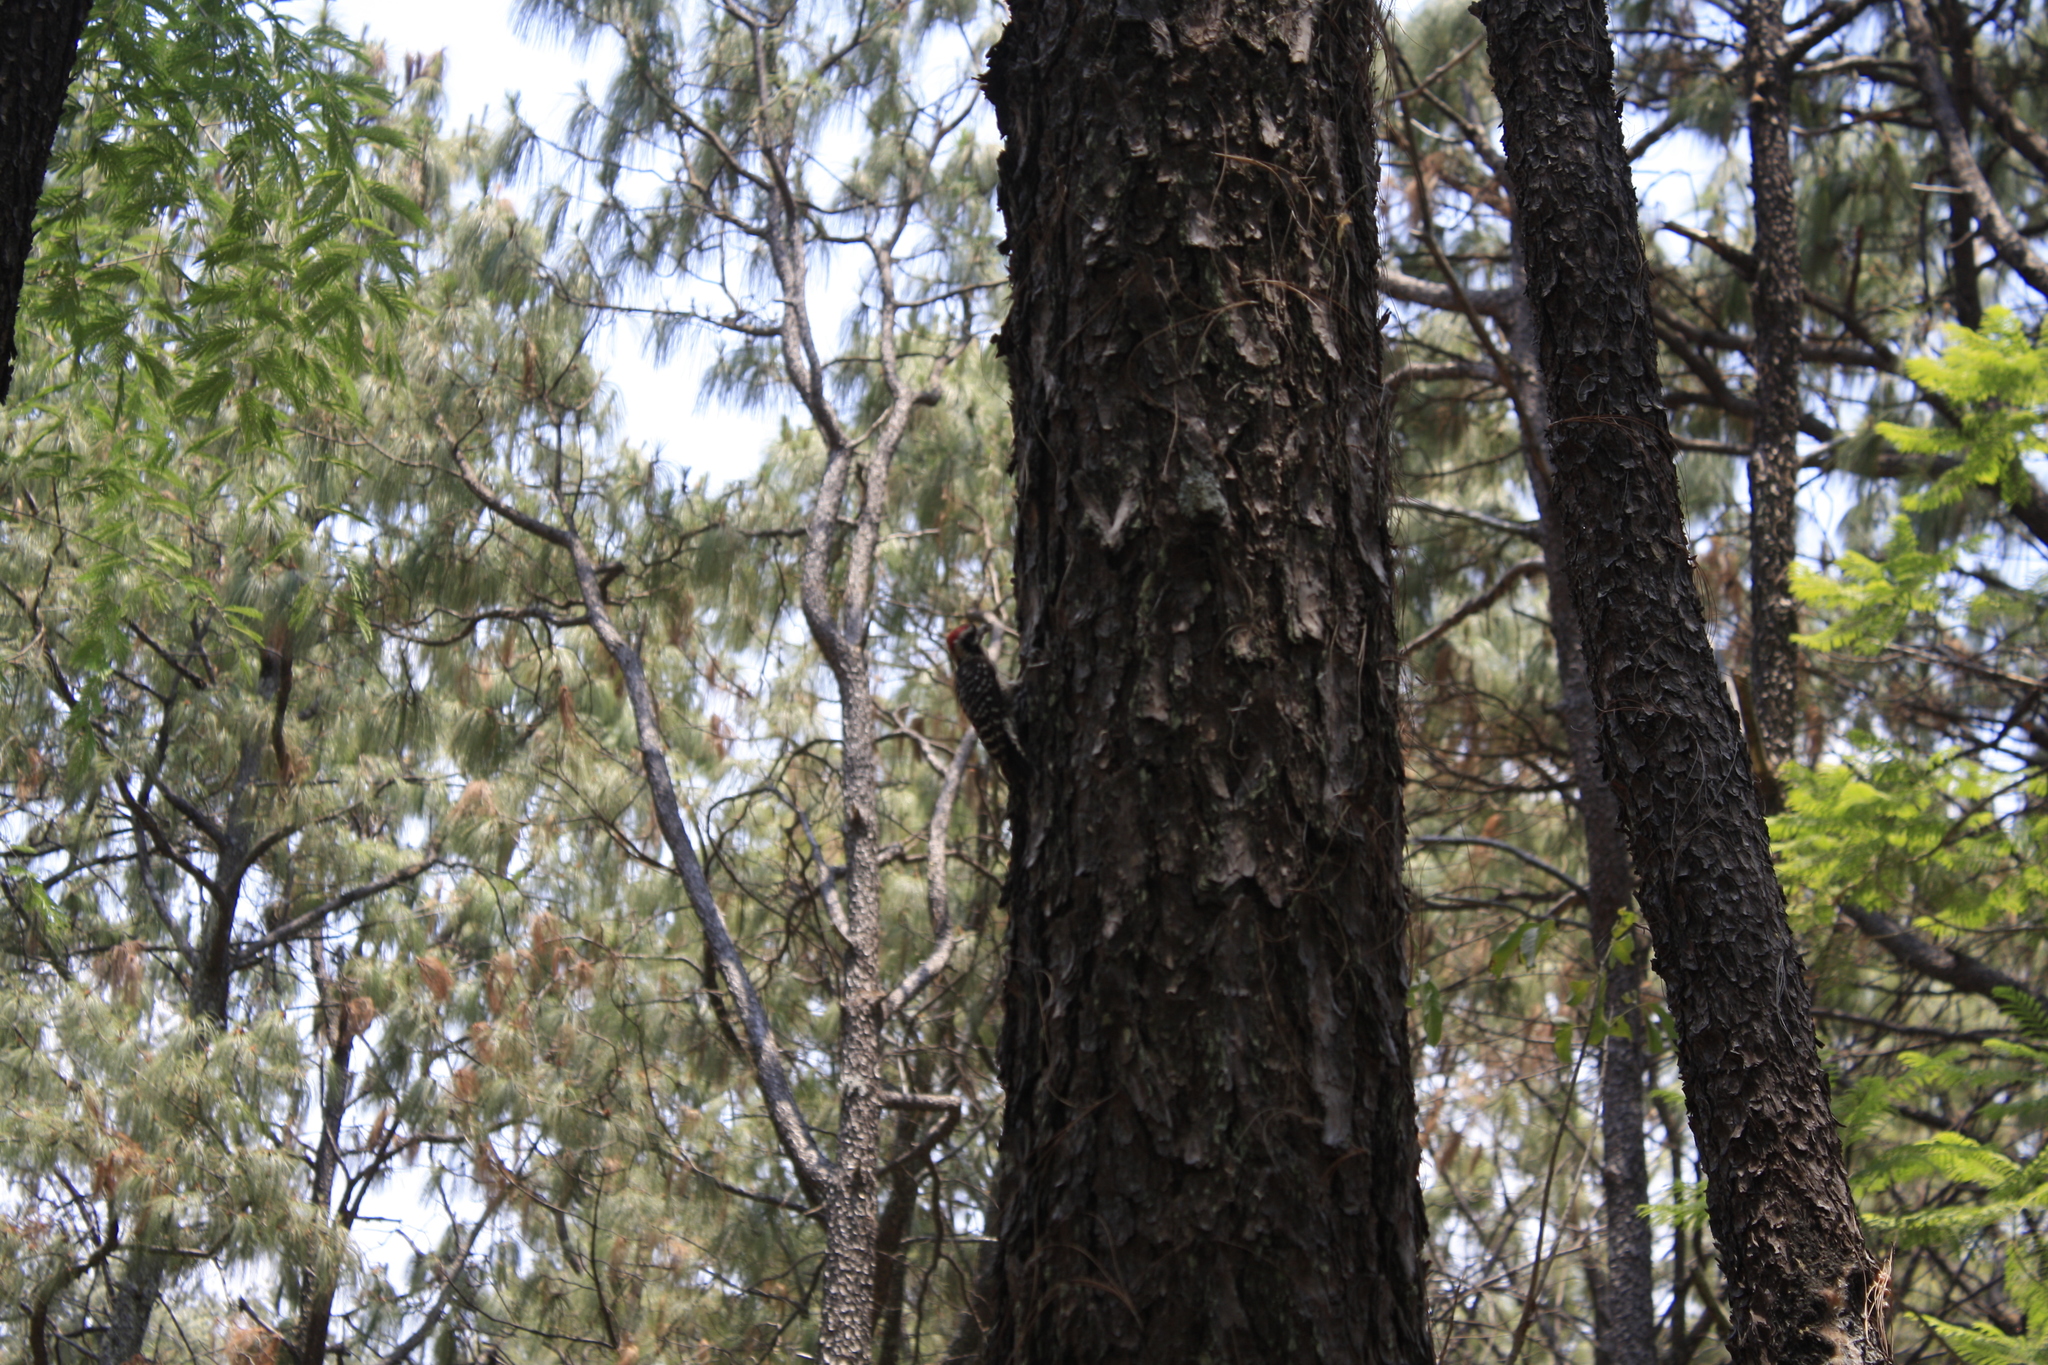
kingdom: Animalia
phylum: Chordata
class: Aves
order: Piciformes
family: Picidae
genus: Dryobates
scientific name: Dryobates scalaris
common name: Ladder-backed woodpecker
